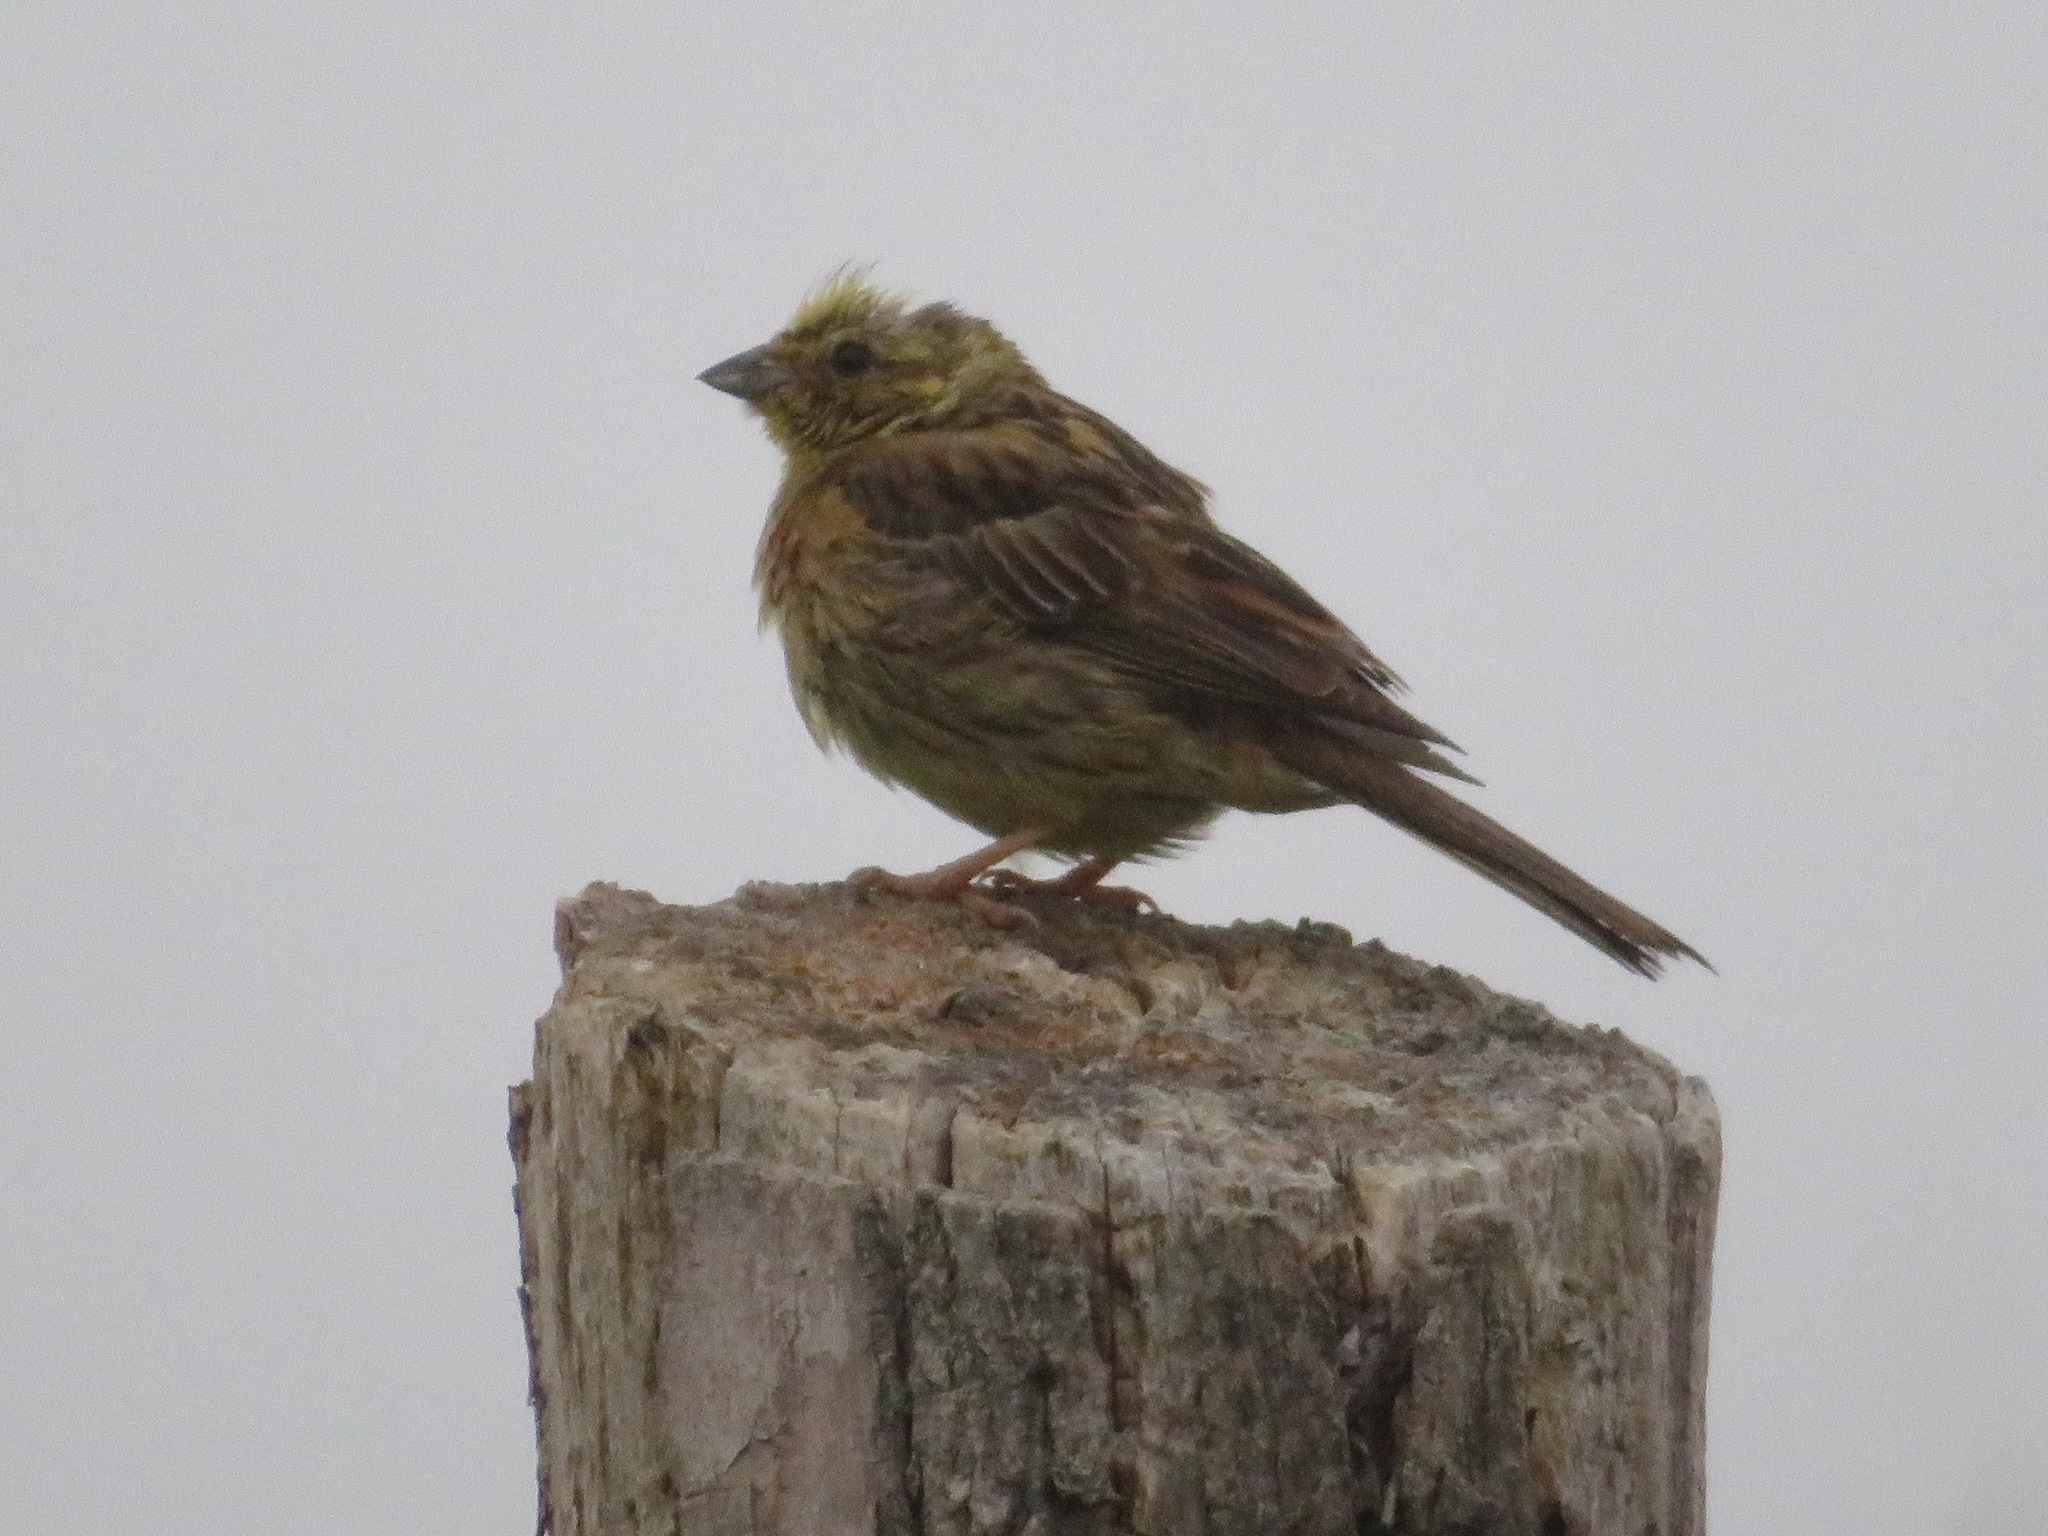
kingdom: Animalia
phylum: Chordata
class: Aves
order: Passeriformes
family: Emberizidae
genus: Emberiza
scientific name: Emberiza citrinella
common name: Yellowhammer
